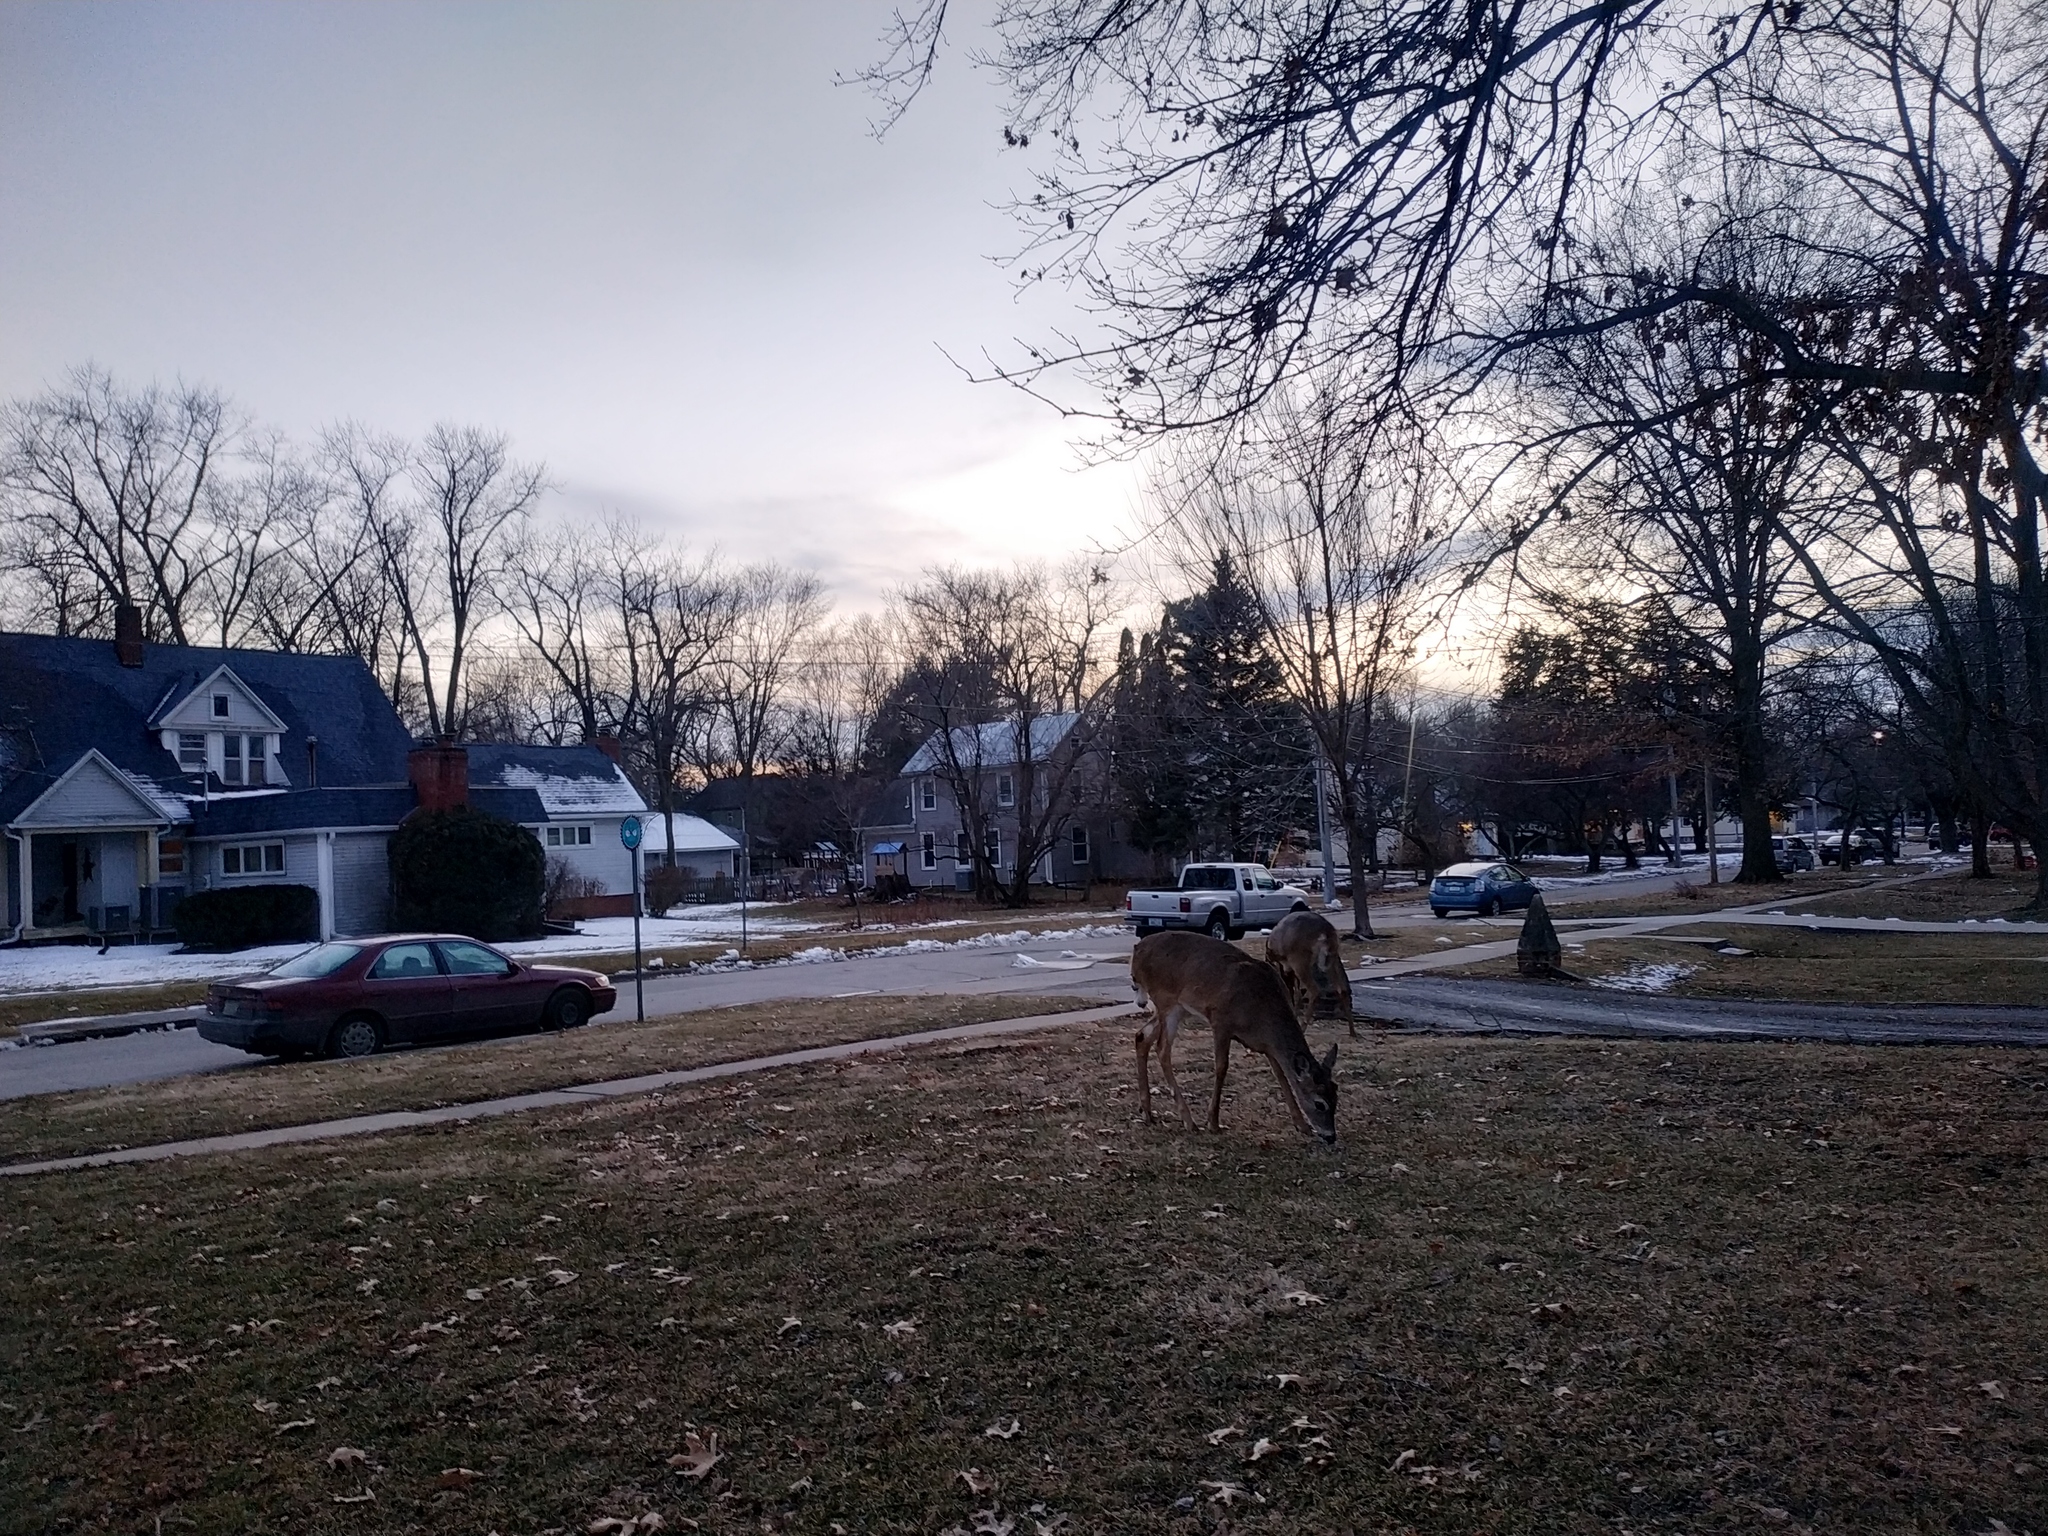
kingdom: Animalia
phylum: Chordata
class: Mammalia
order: Artiodactyla
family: Cervidae
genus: Odocoileus
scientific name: Odocoileus virginianus
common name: White-tailed deer
